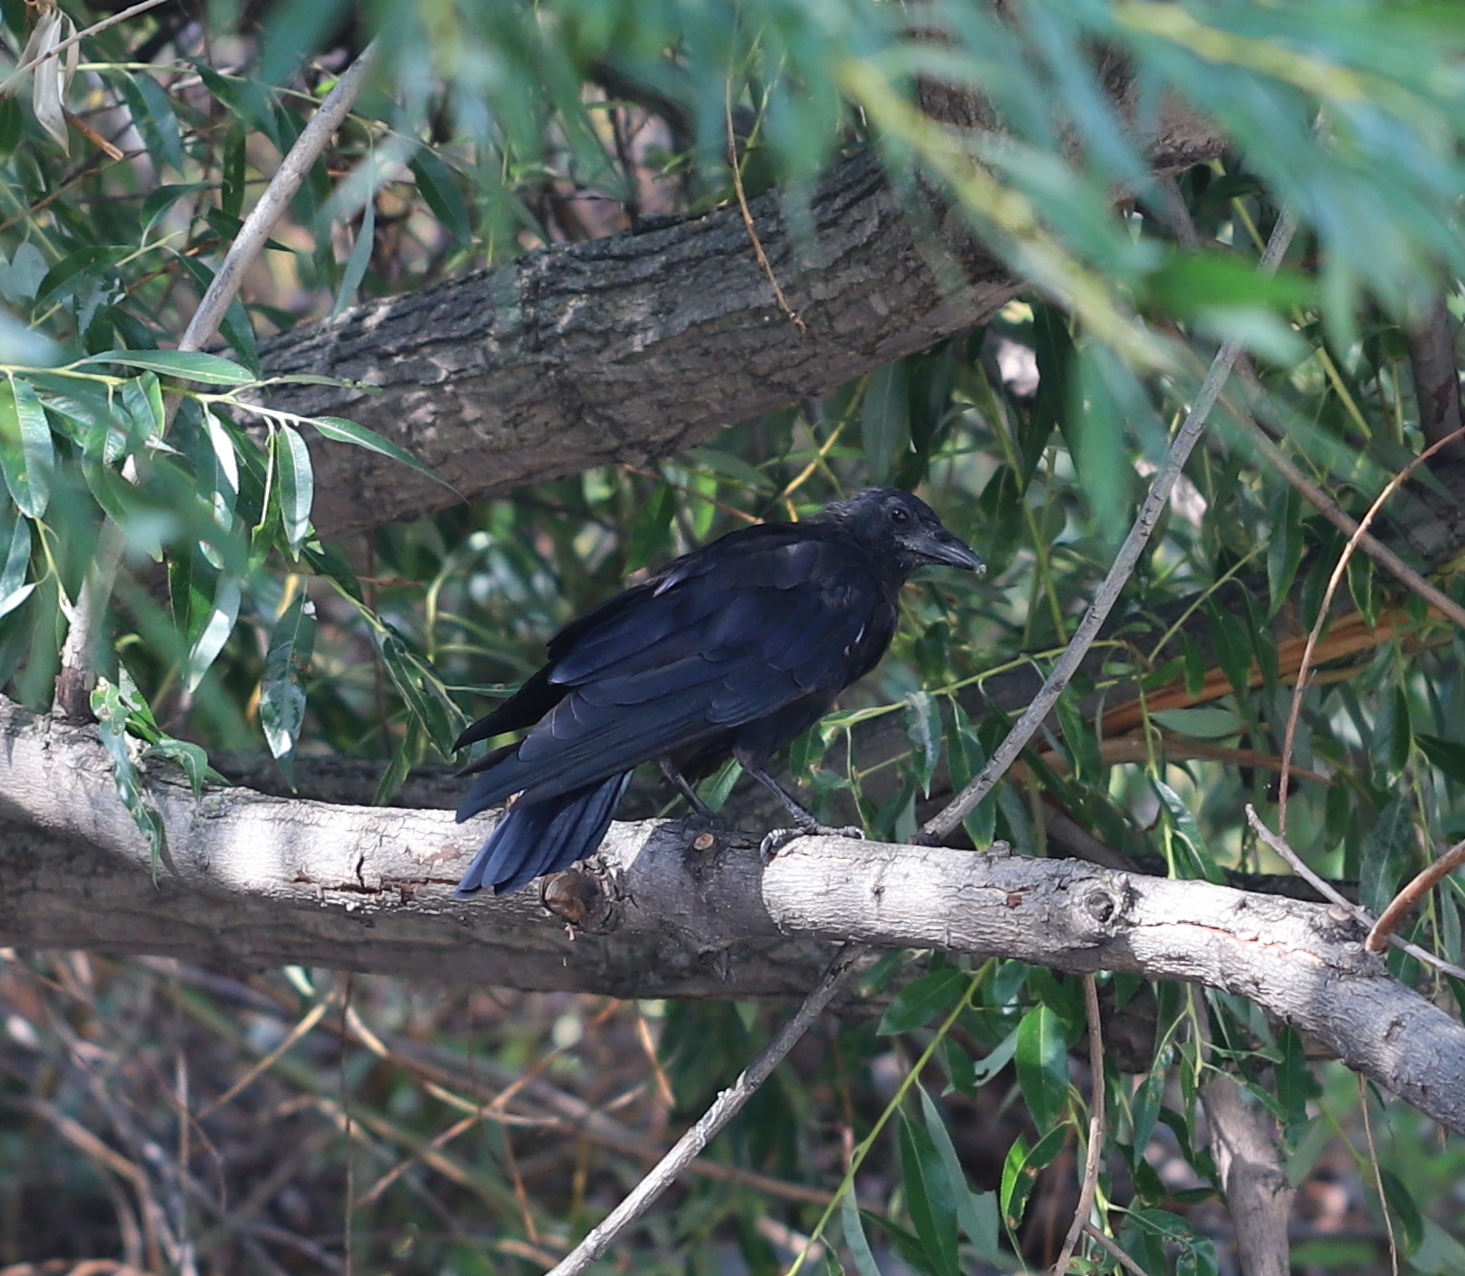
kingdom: Animalia
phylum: Chordata
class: Aves
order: Passeriformes
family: Corvidae
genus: Corvus
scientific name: Corvus brachyrhynchos
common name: American crow
